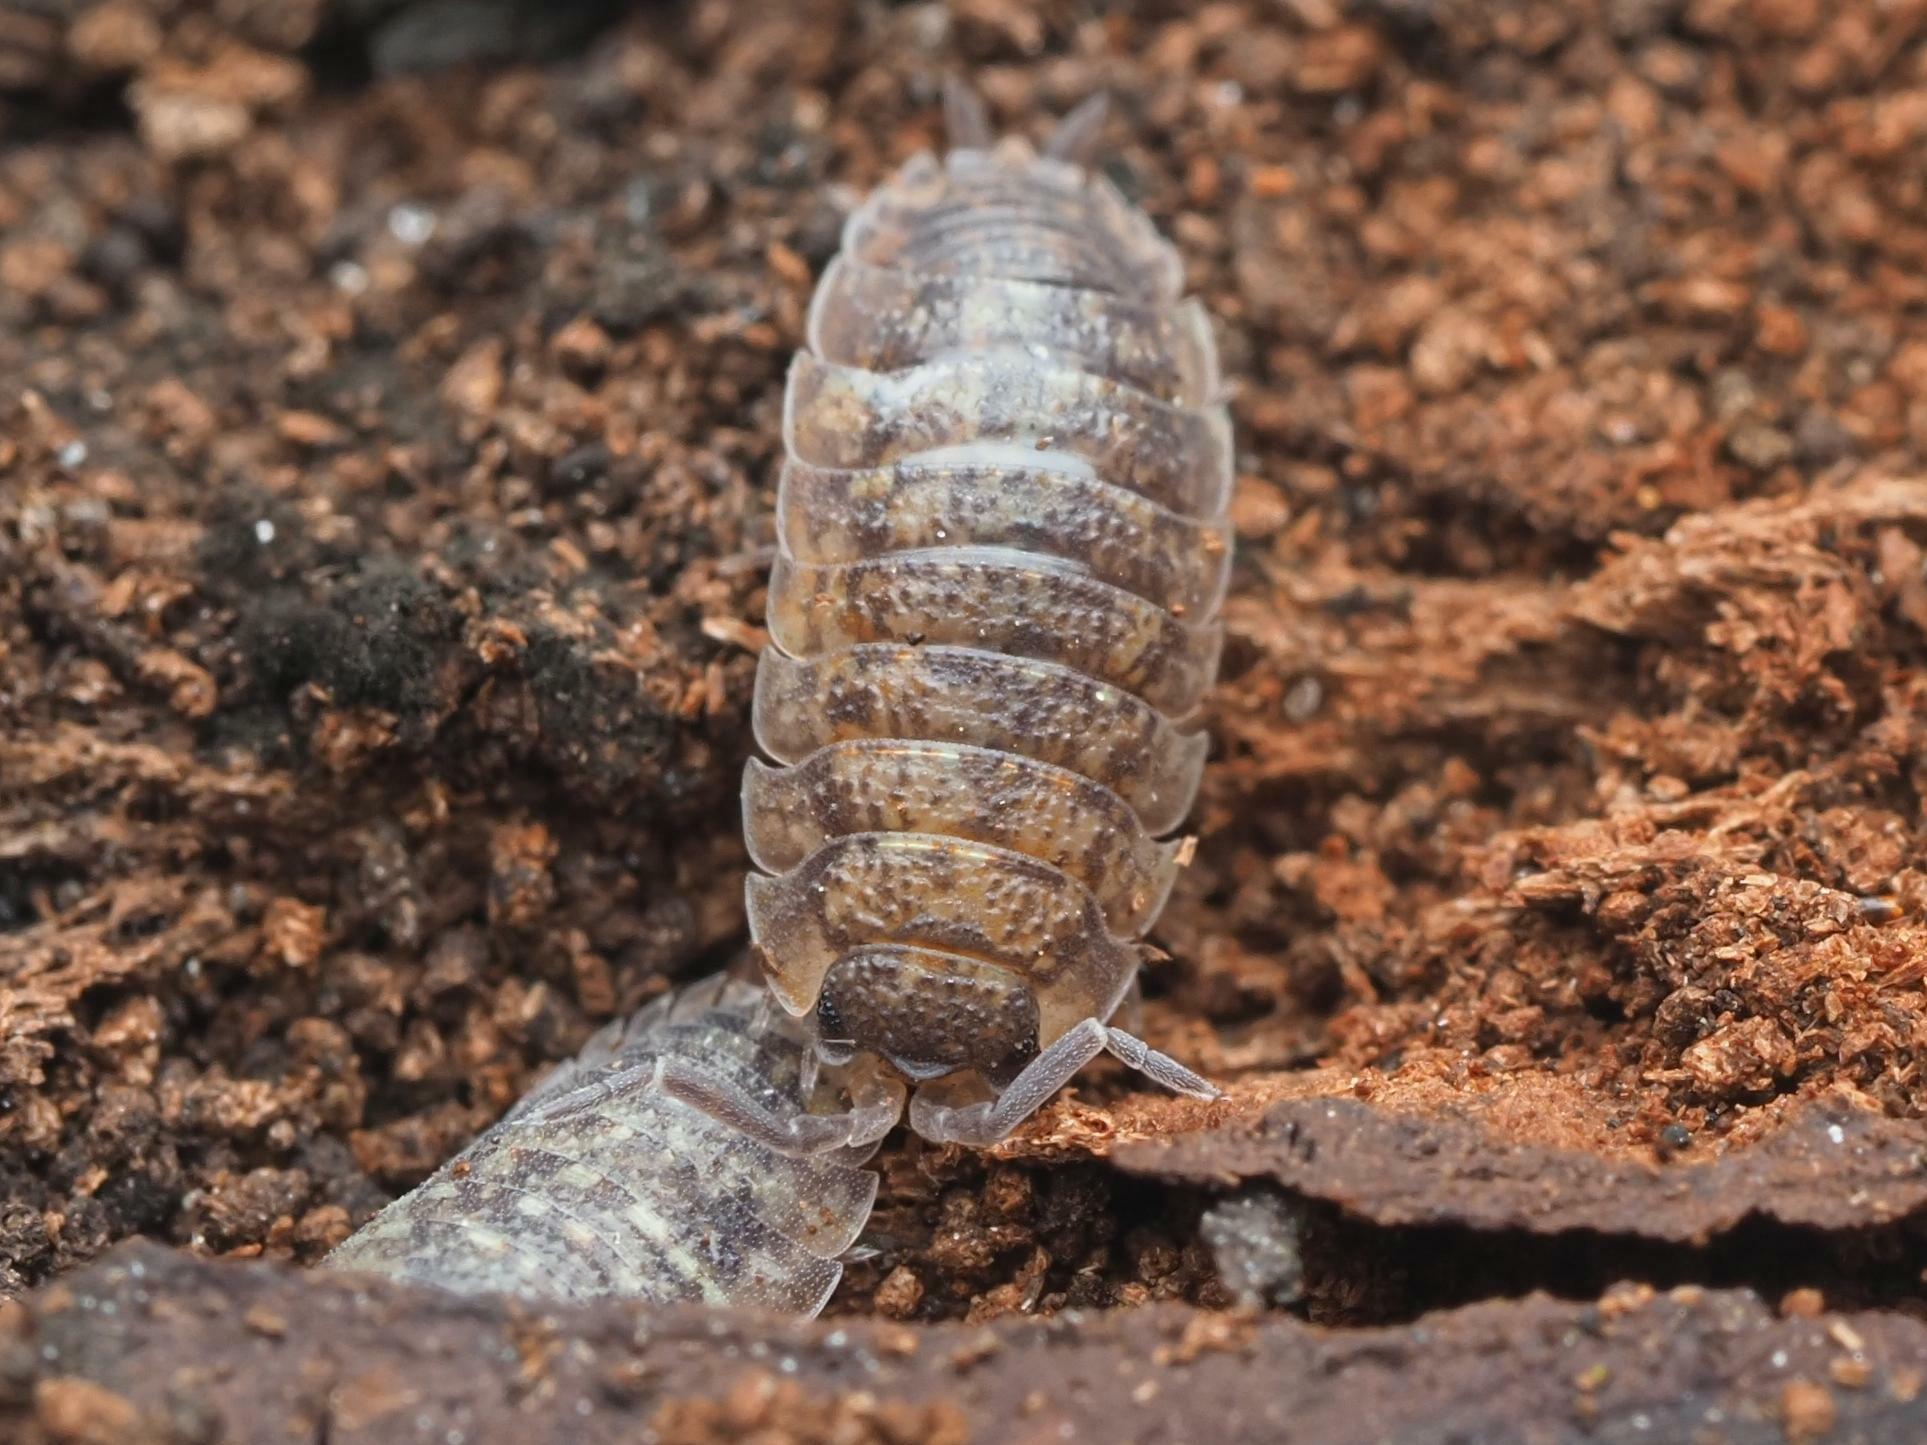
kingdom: Animalia
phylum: Arthropoda
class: Malacostraca
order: Isopoda
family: Porcellionidae
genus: Porcellio
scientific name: Porcellio scaber
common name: Common rough woodlouse
